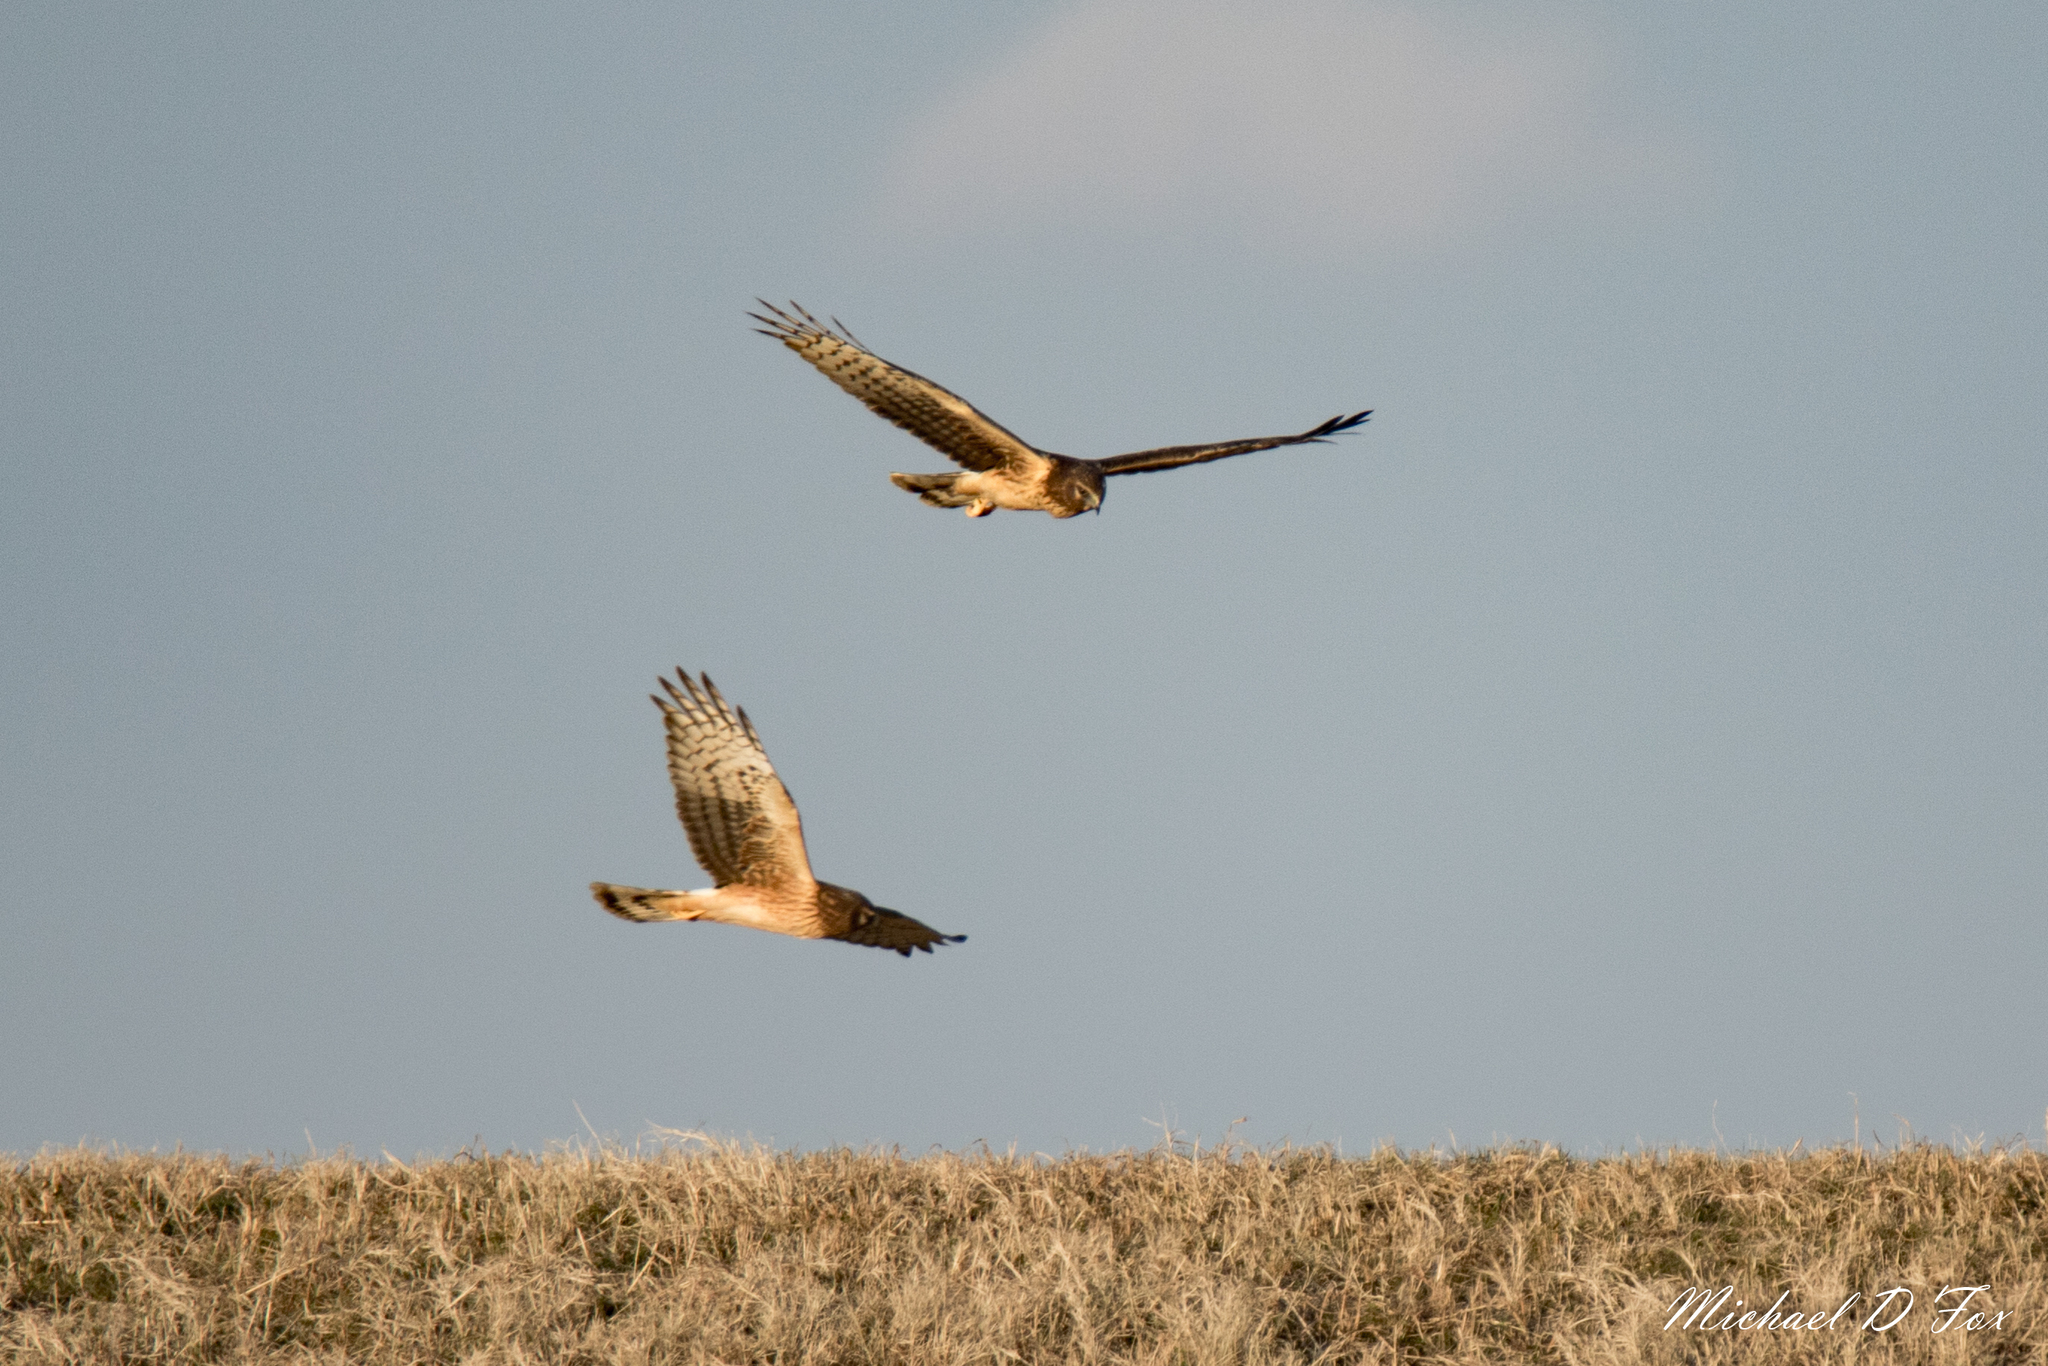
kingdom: Animalia
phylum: Chordata
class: Aves
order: Accipitriformes
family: Accipitridae
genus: Circus
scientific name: Circus cyaneus
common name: Hen harrier
